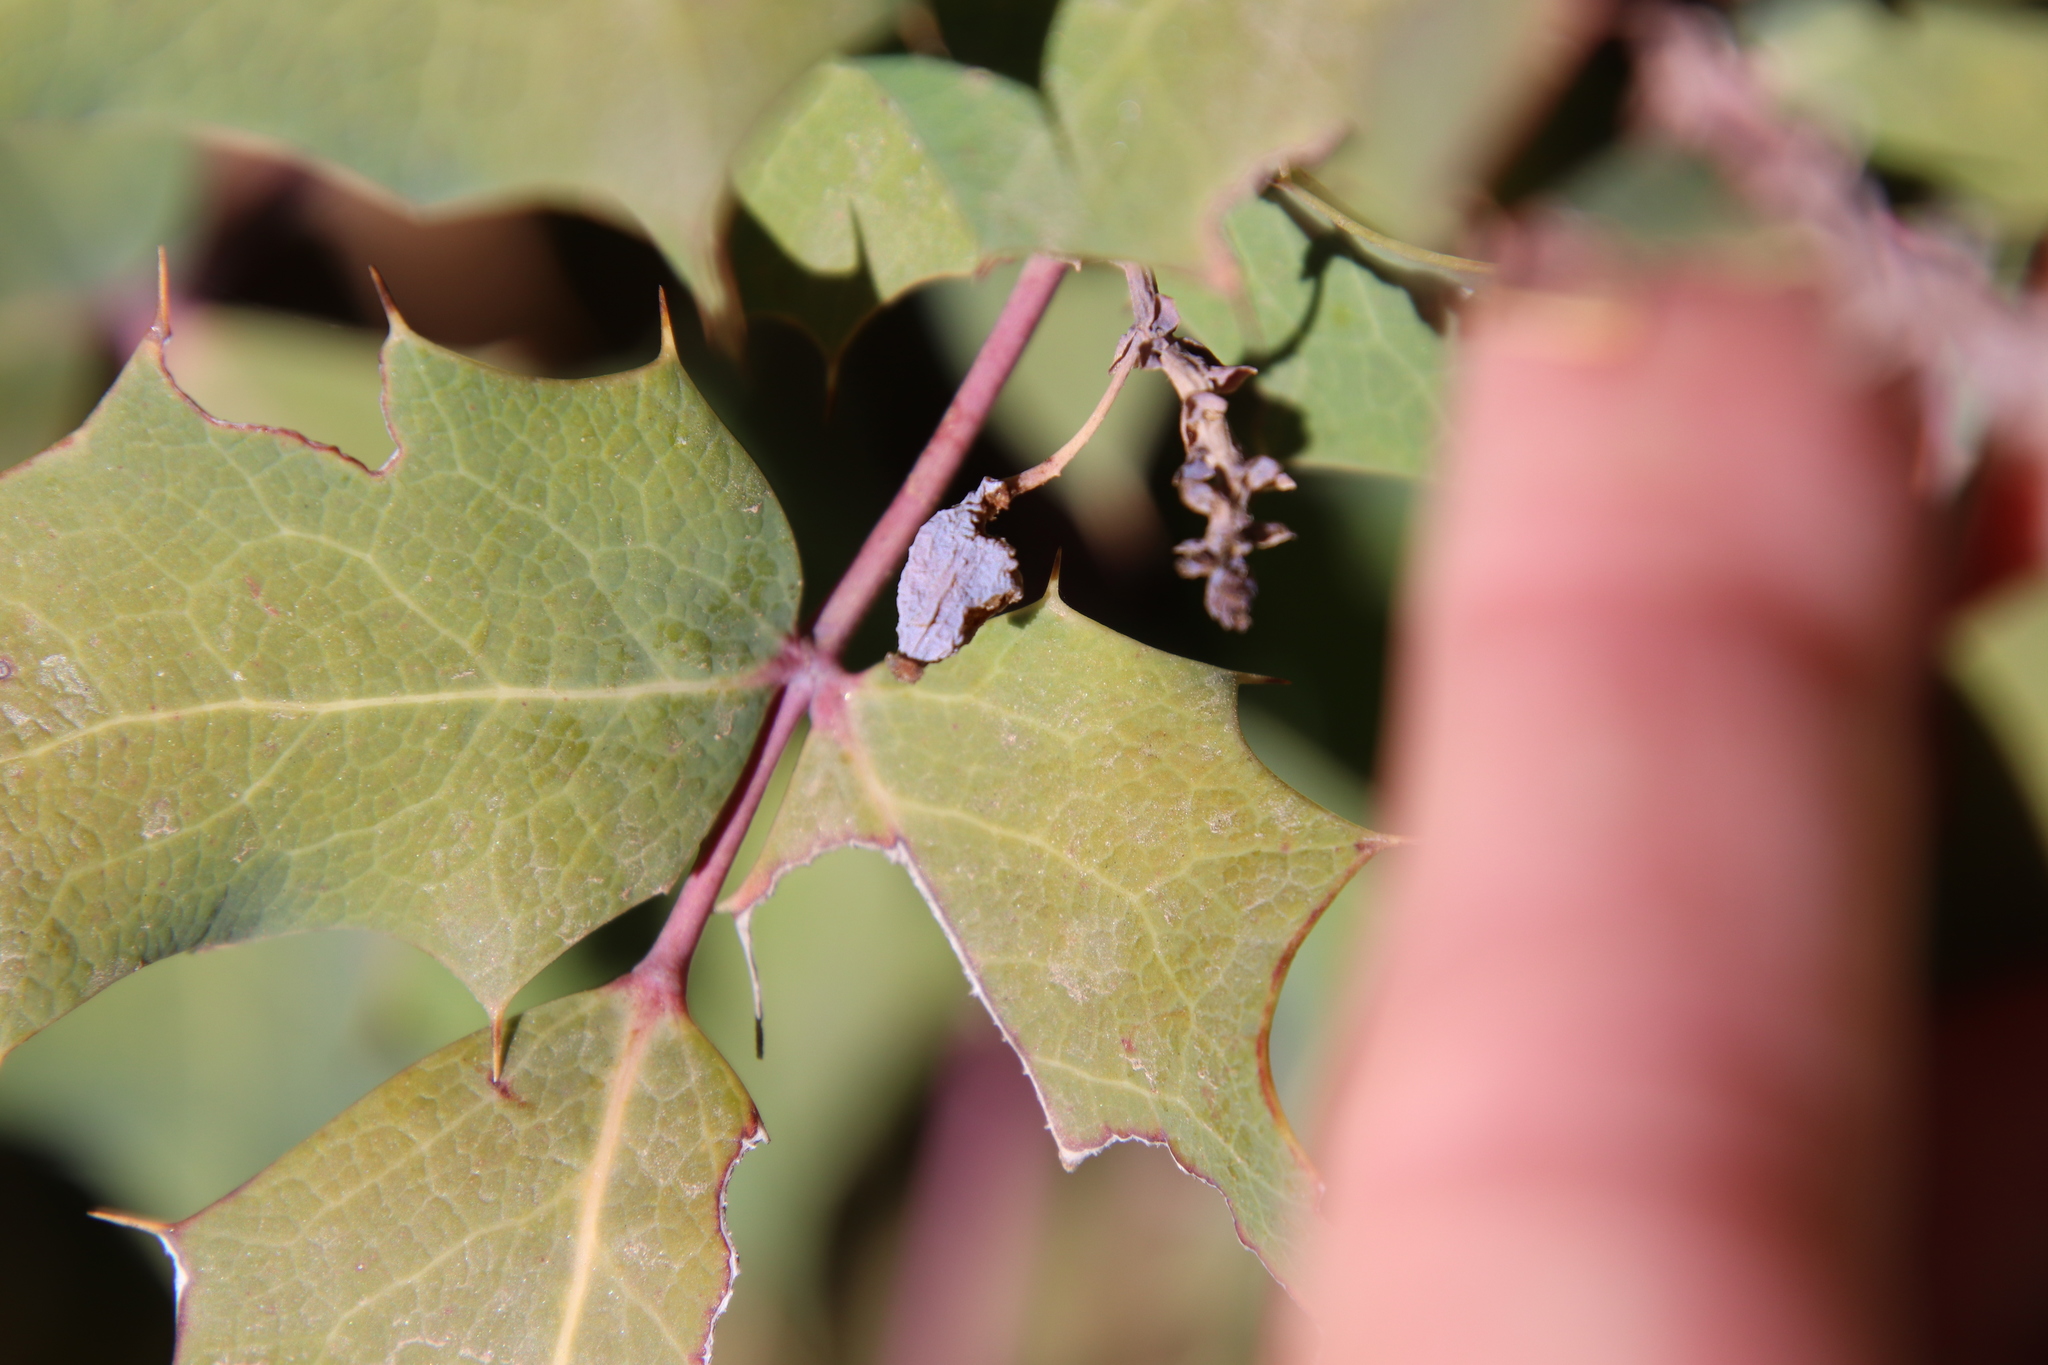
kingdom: Plantae
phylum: Tracheophyta
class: Magnoliopsida
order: Ranunculales
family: Berberidaceae
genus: Mahonia
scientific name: Mahonia dictyota
